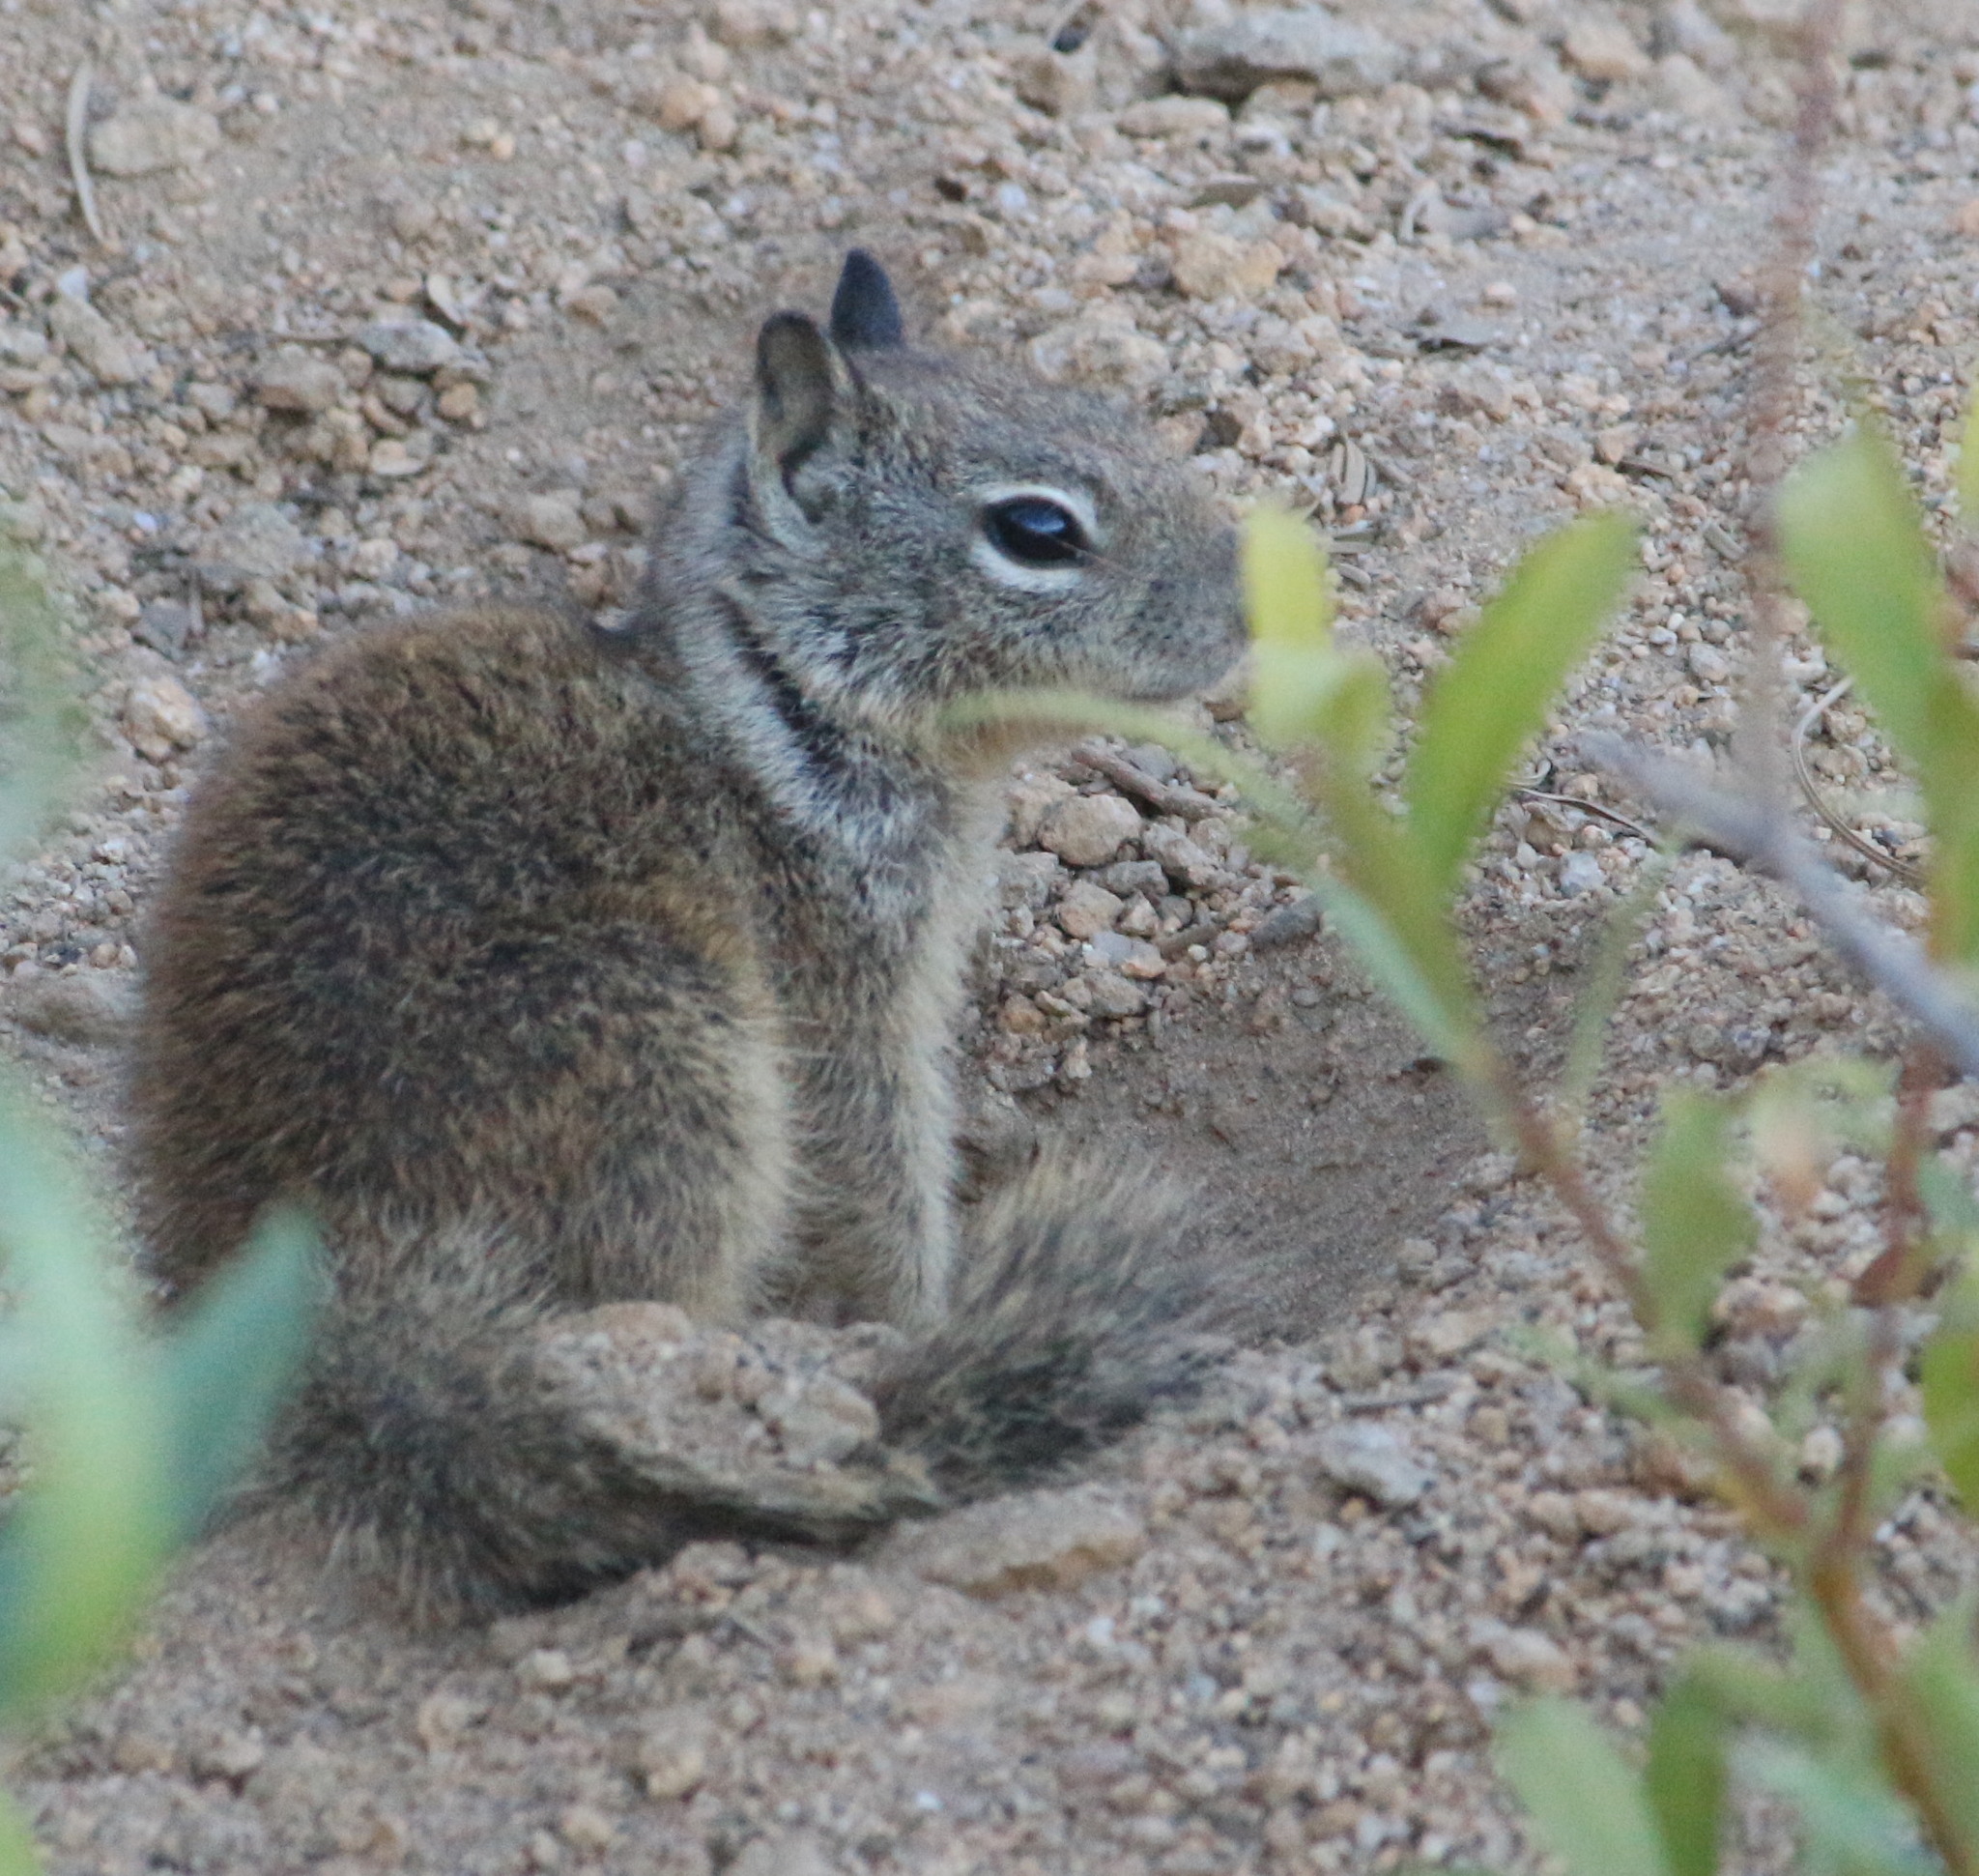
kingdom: Animalia
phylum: Chordata
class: Mammalia
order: Rodentia
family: Sciuridae
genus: Otospermophilus
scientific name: Otospermophilus beecheyi
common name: California ground squirrel
